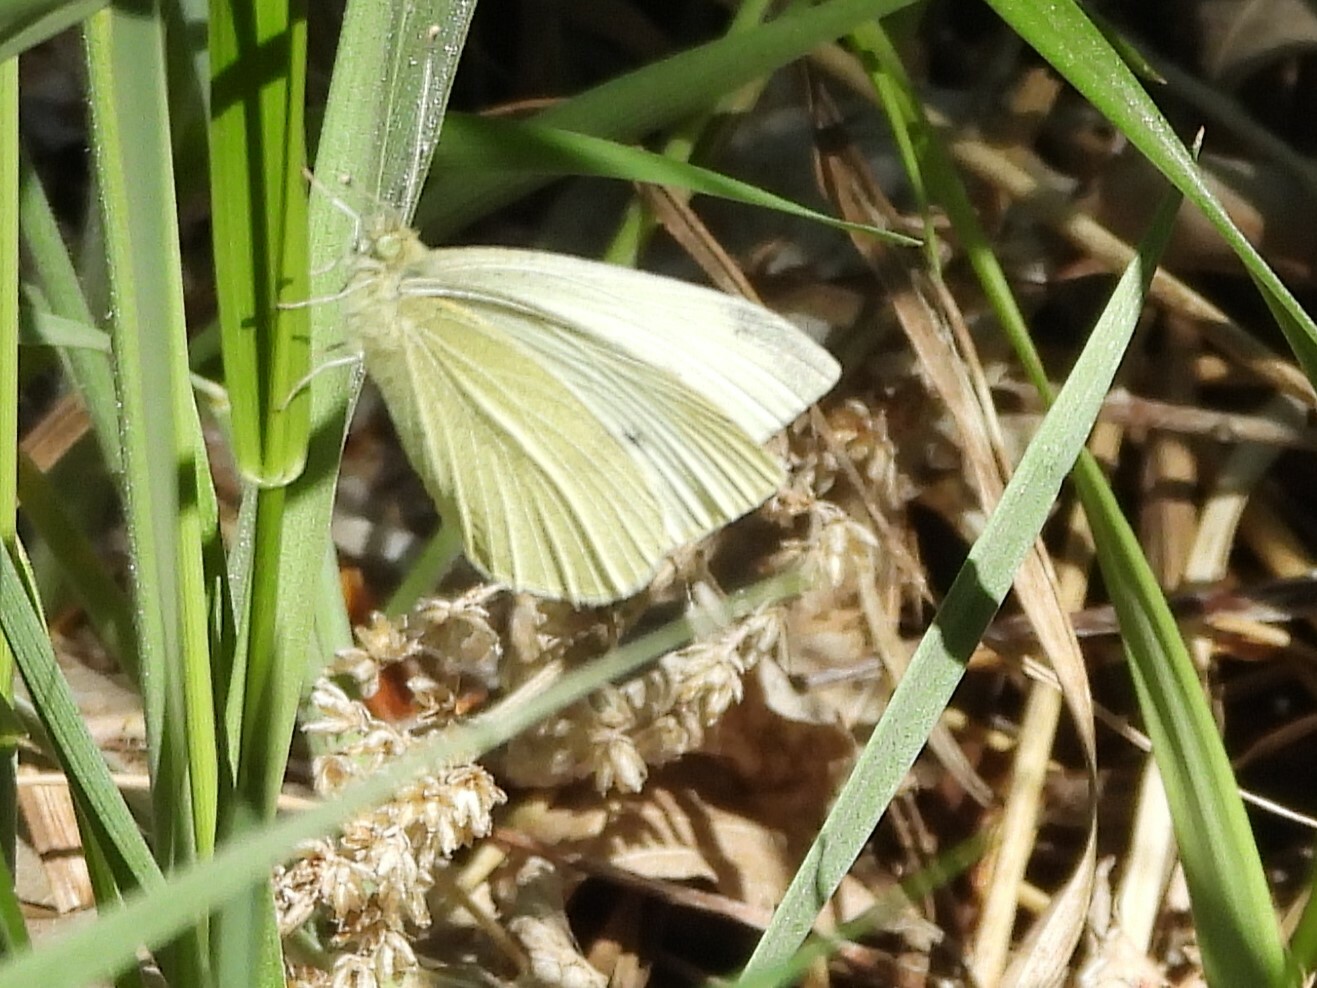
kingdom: Animalia
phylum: Arthropoda
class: Insecta
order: Lepidoptera
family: Pieridae
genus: Pieris
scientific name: Pieris rapae
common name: Small white
